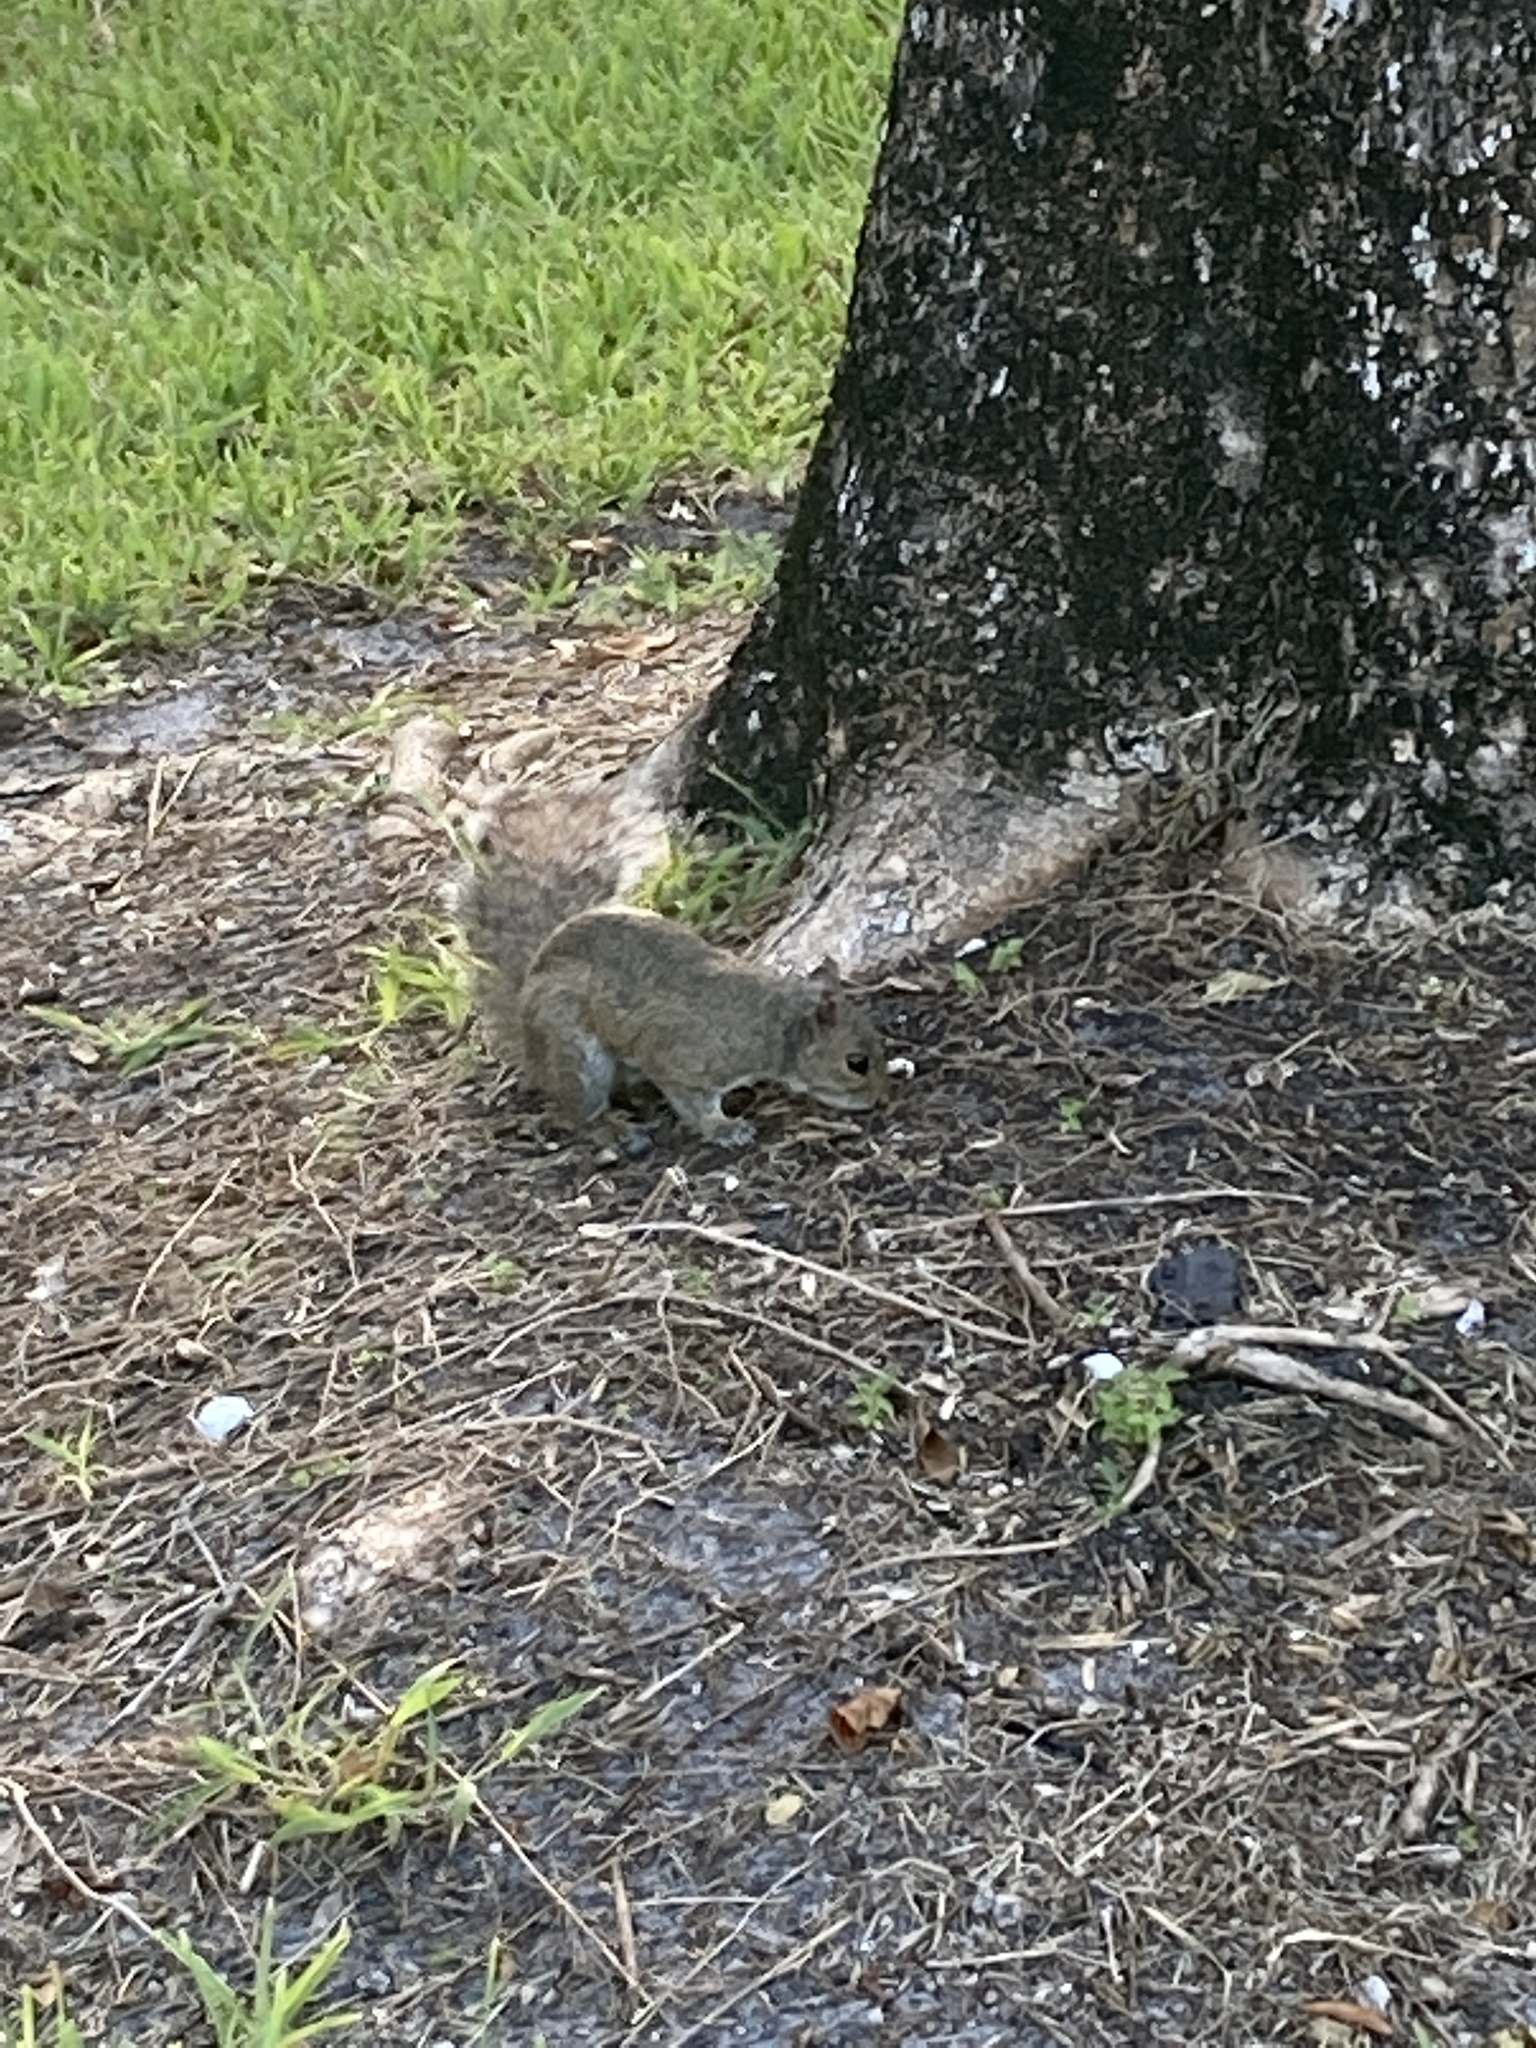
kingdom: Animalia
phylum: Chordata
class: Mammalia
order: Rodentia
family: Sciuridae
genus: Sciurus
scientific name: Sciurus carolinensis
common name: Eastern gray squirrel
